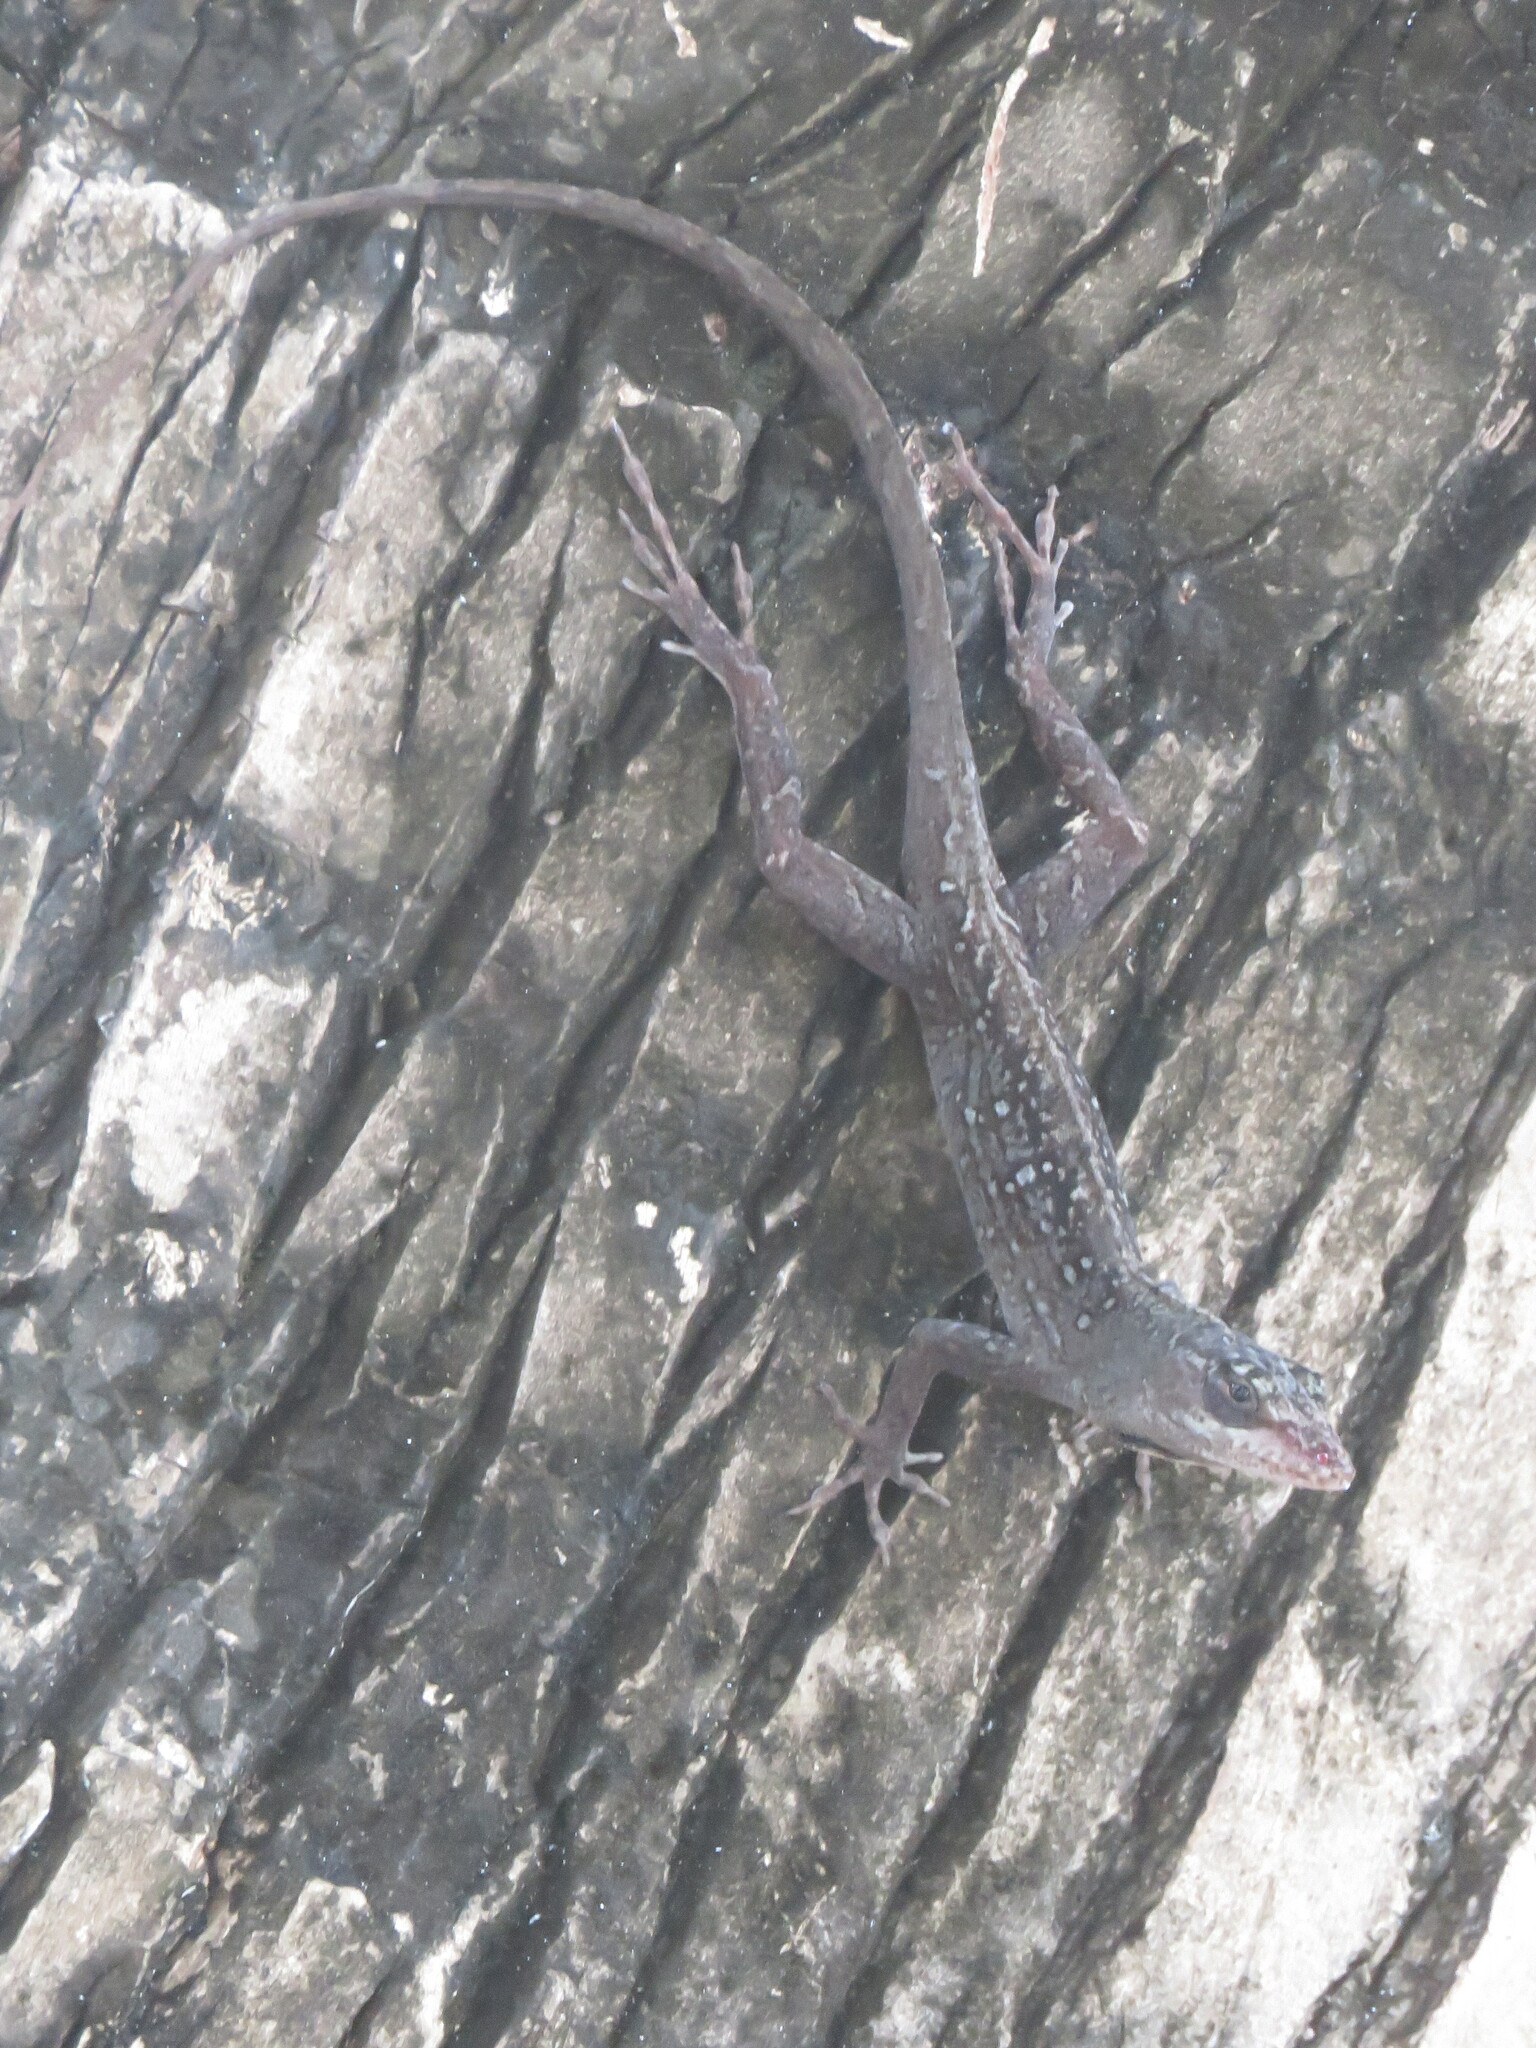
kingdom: Animalia
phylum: Chordata
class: Squamata
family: Dactyloidae
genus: Anolis
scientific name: Anolis sagrei
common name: Brown anole
